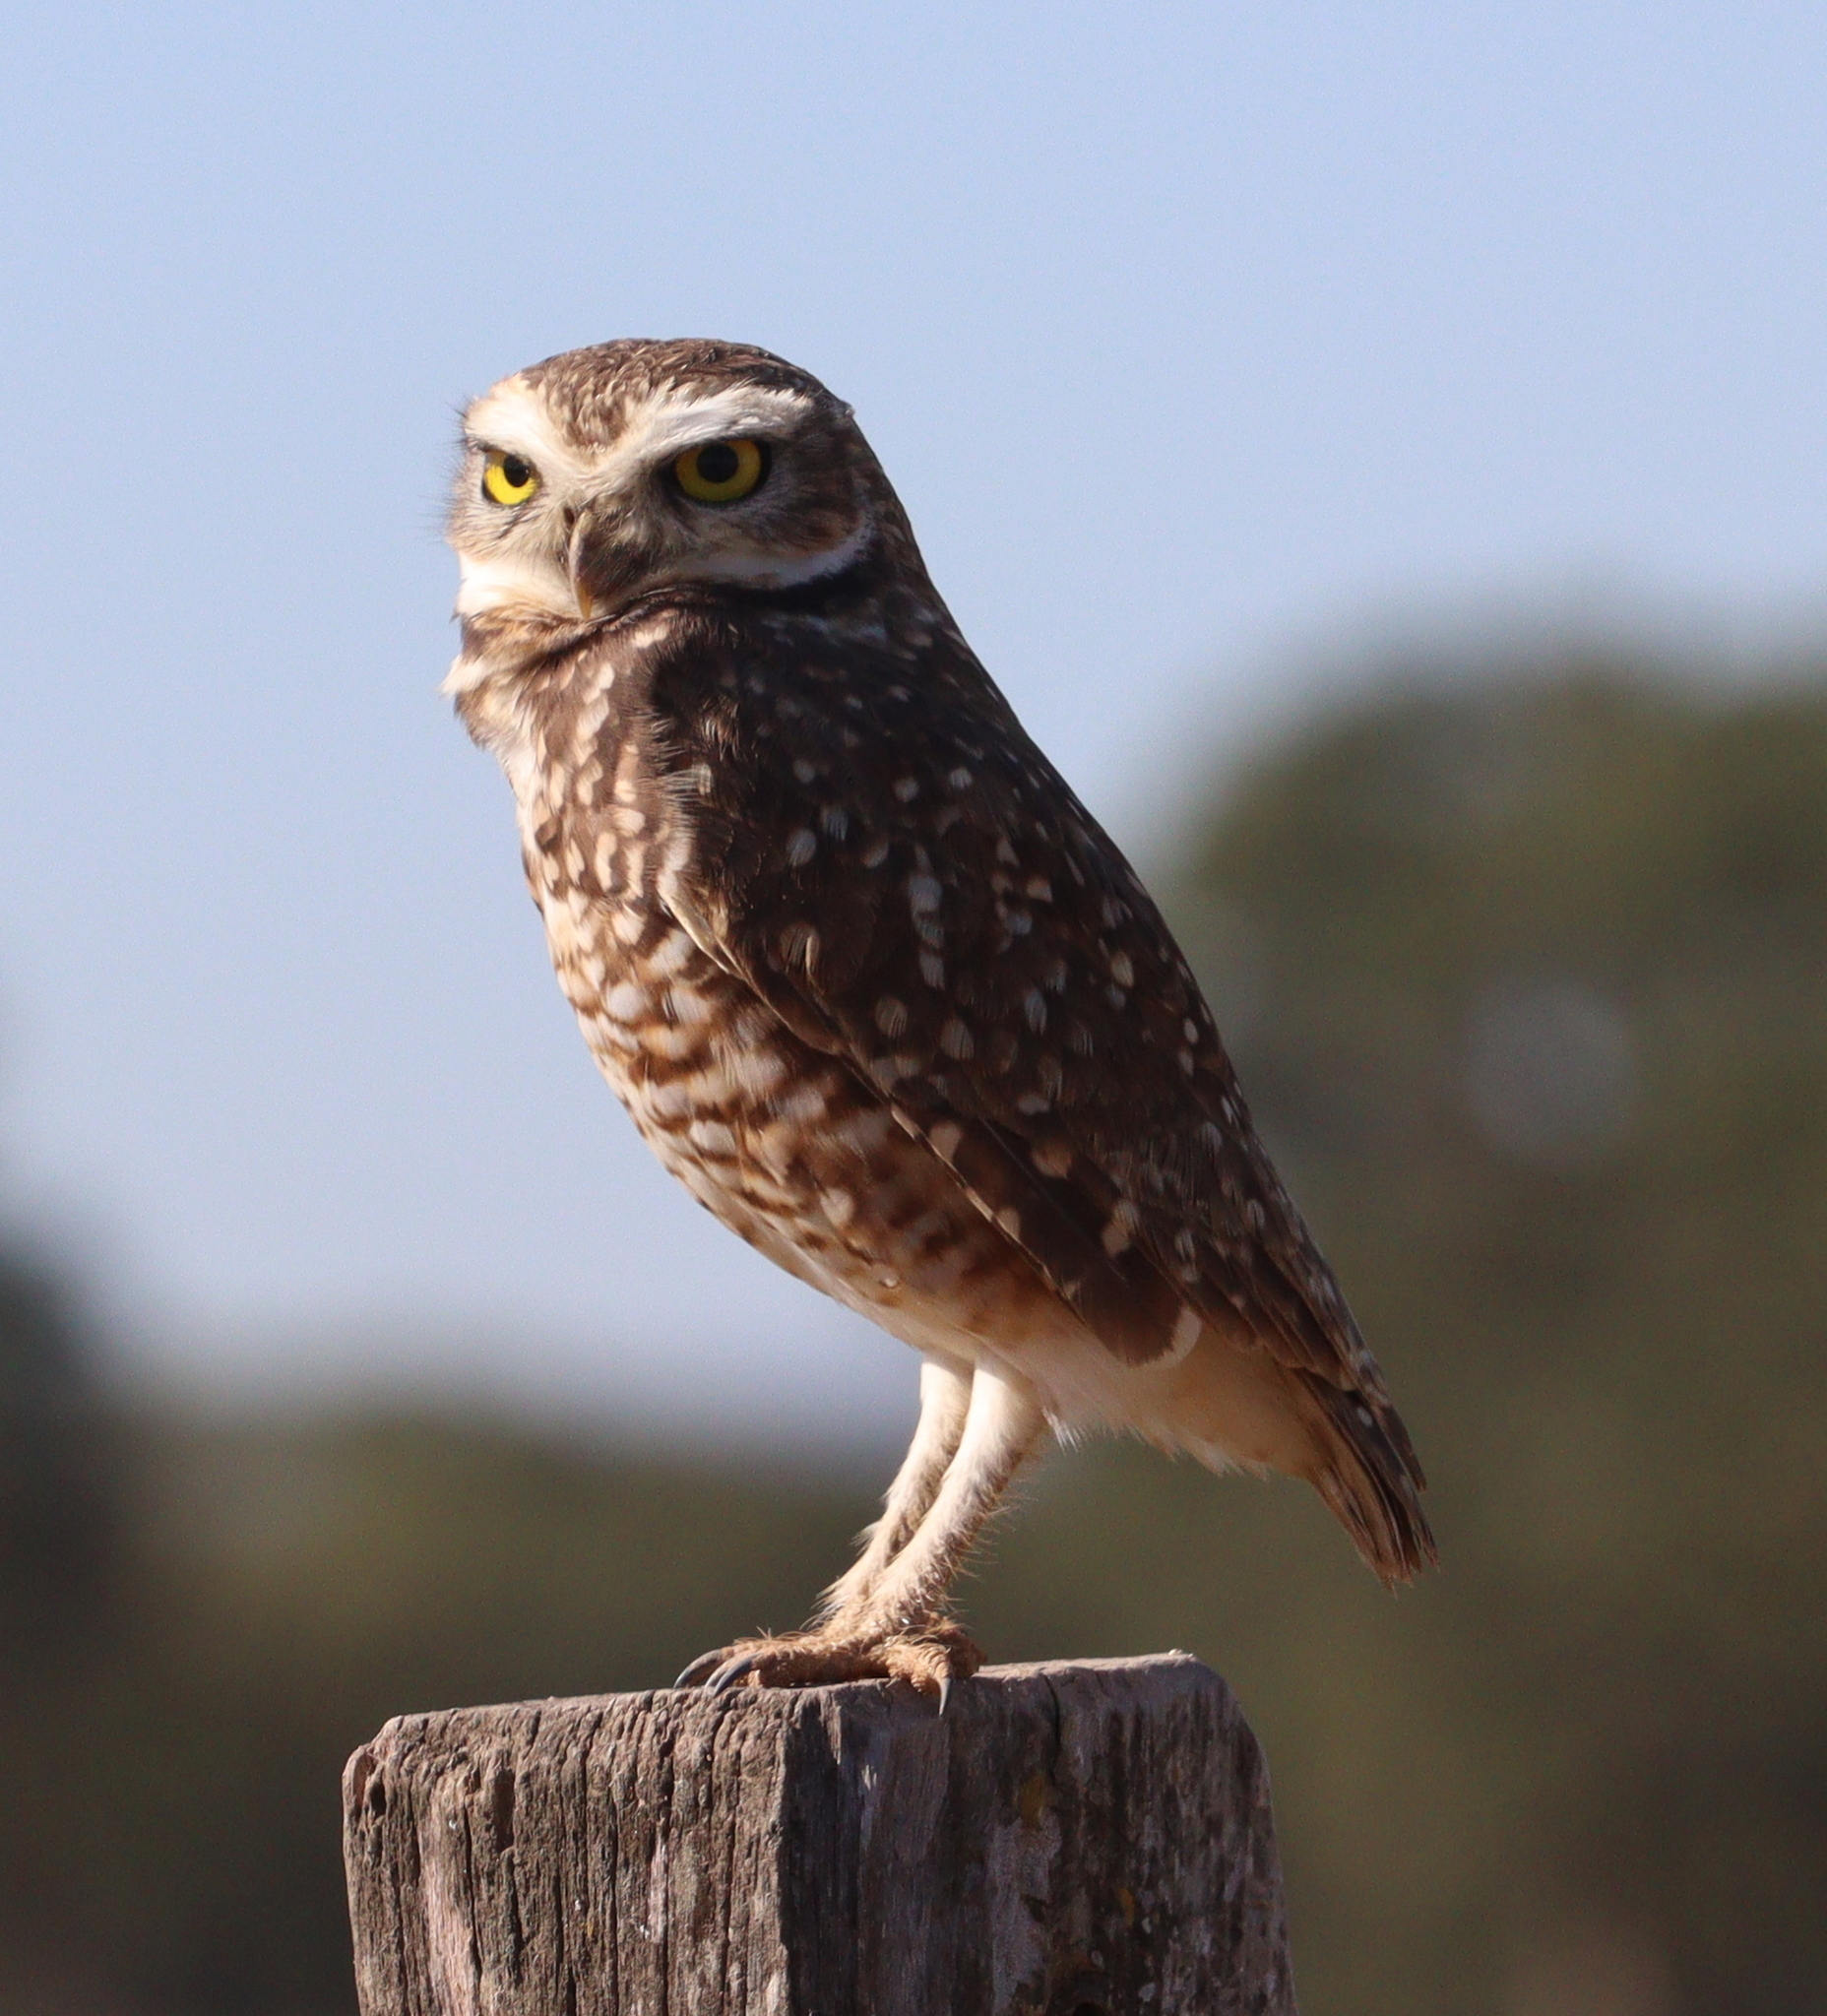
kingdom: Animalia
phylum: Chordata
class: Aves
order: Strigiformes
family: Strigidae
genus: Athene
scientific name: Athene cunicularia
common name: Burrowing owl
